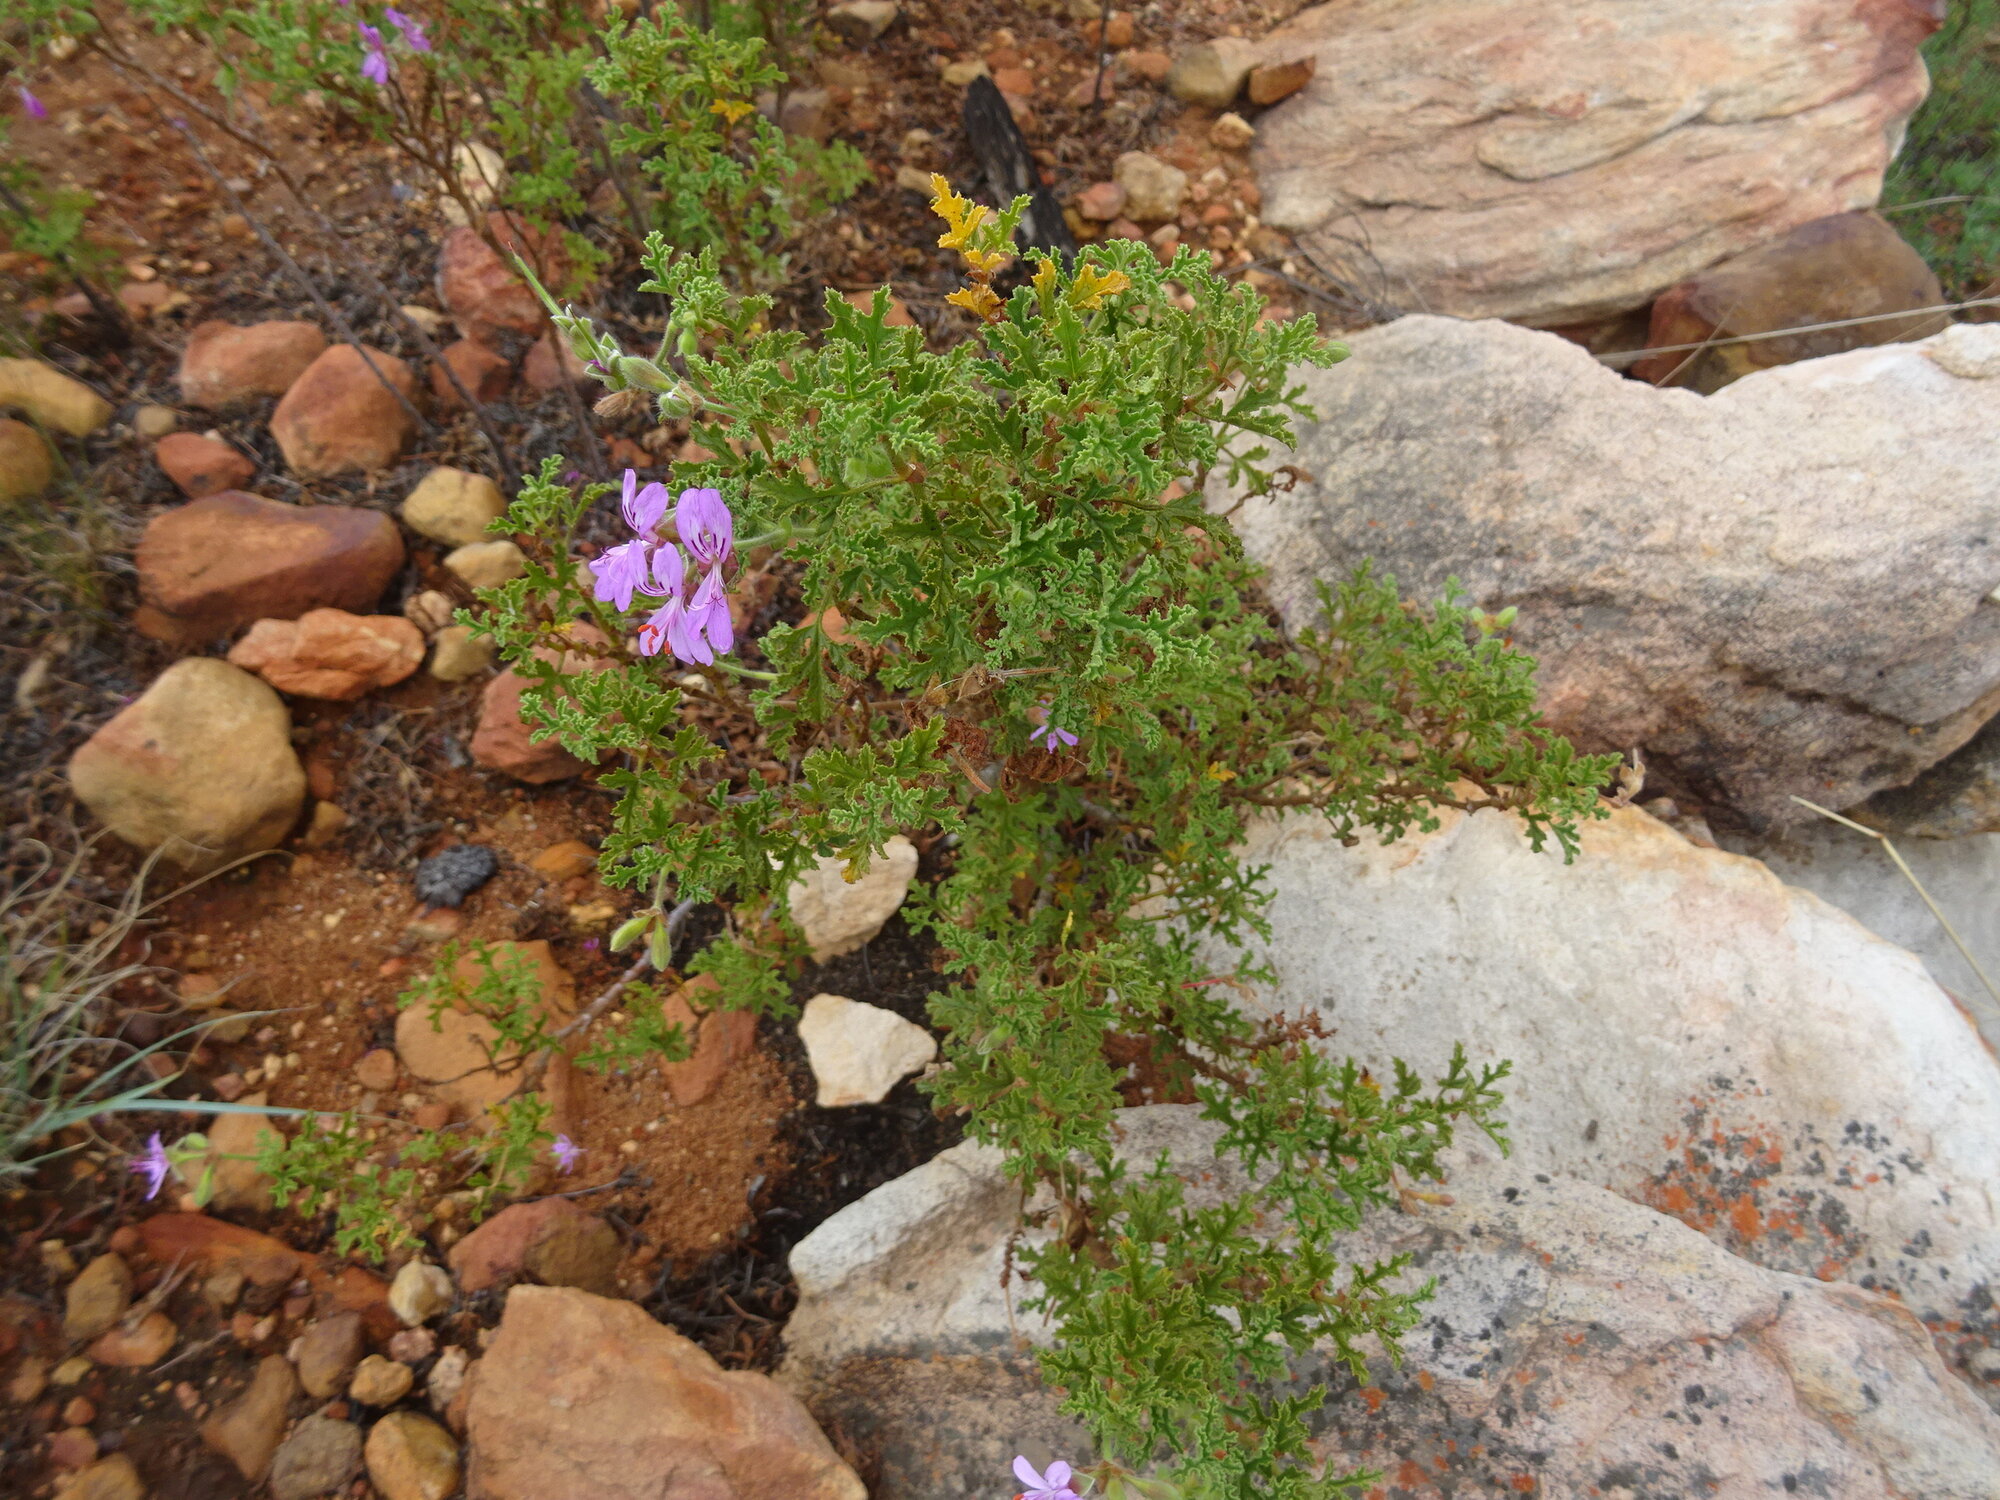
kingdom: Plantae
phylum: Tracheophyta
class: Magnoliopsida
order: Geraniales
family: Geraniaceae
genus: Pelargonium
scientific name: Pelargonium quercifolium
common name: Oakleaf geranium
